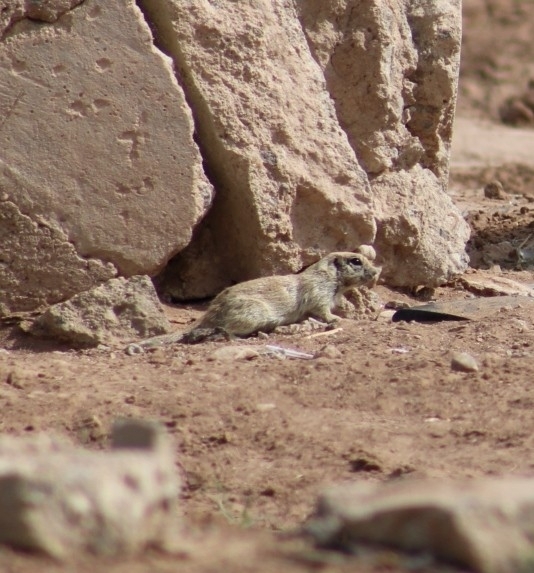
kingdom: Animalia
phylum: Chordata
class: Mammalia
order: Rodentia
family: Sciuridae
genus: Xerospermophilus
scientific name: Xerospermophilus tereticaudus
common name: Round-tailed ground squirrel
